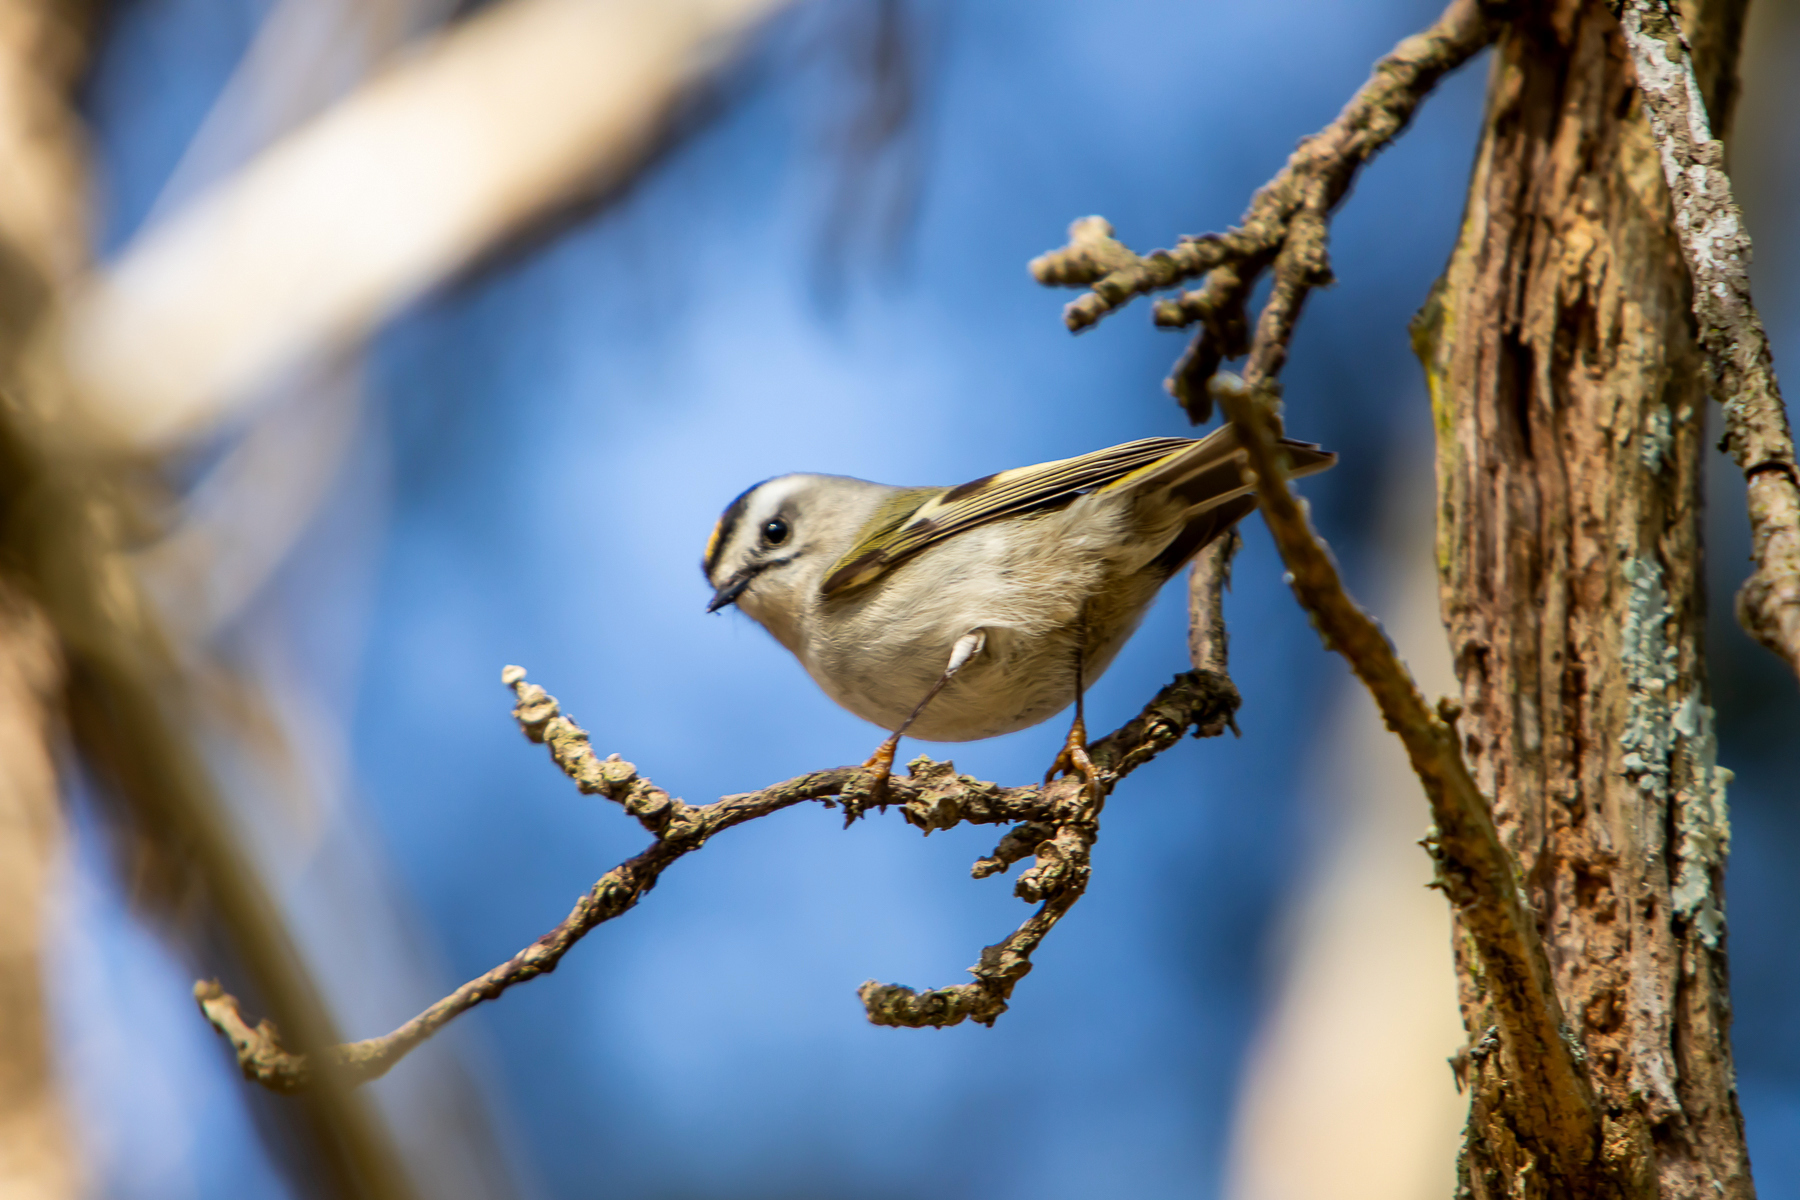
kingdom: Animalia
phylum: Chordata
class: Aves
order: Passeriformes
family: Regulidae
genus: Regulus
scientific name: Regulus satrapa
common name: Golden-crowned kinglet
